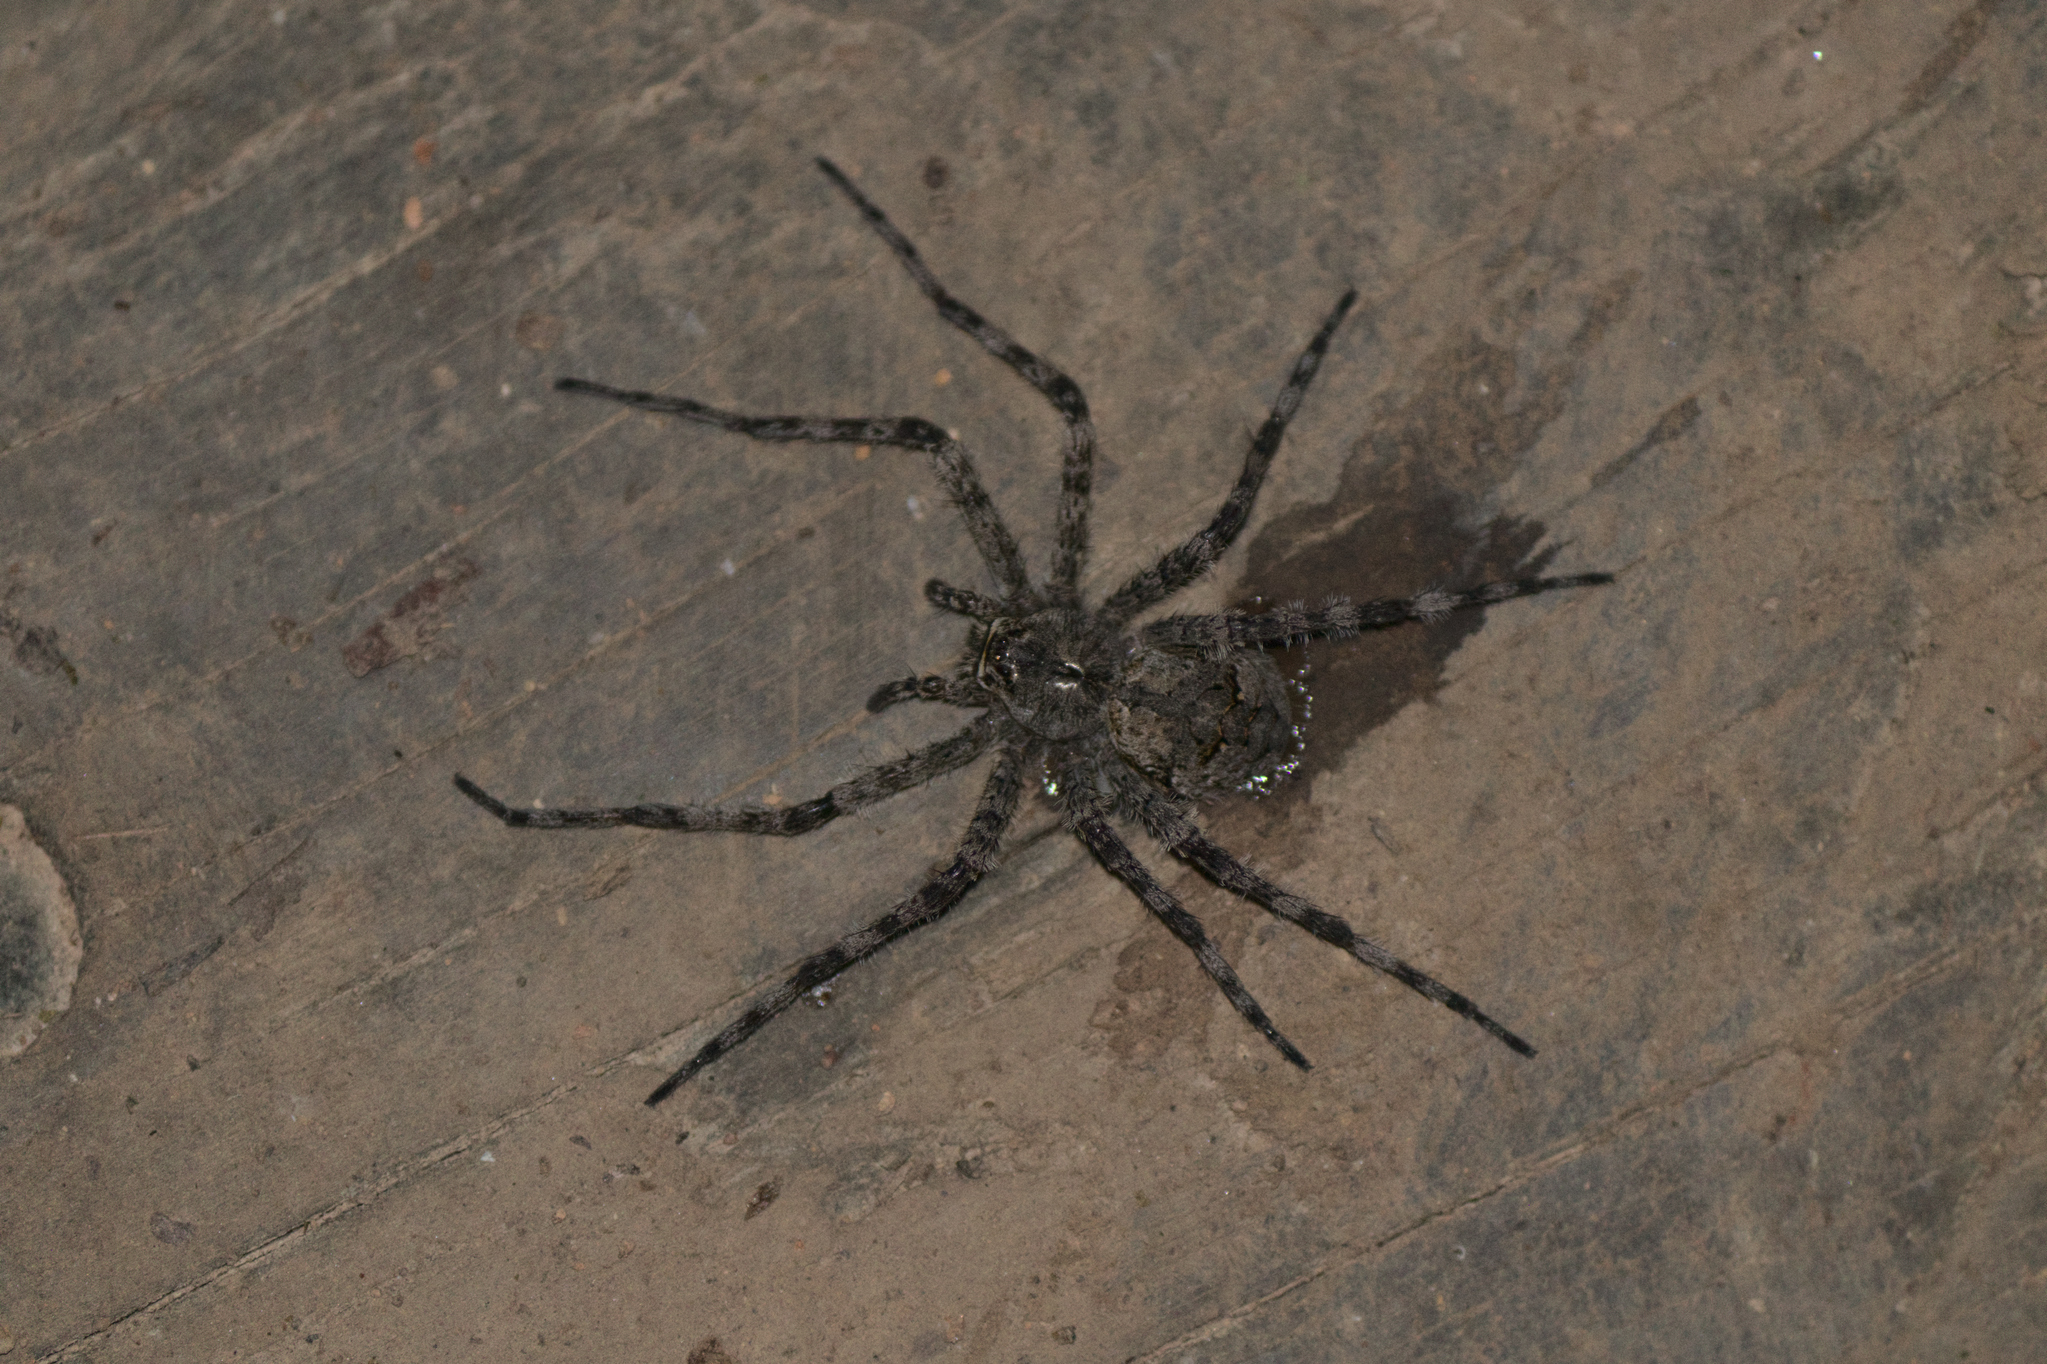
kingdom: Animalia
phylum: Arthropoda
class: Arachnida
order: Araneae
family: Pisauridae
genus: Dolomedes
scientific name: Dolomedes albineus
